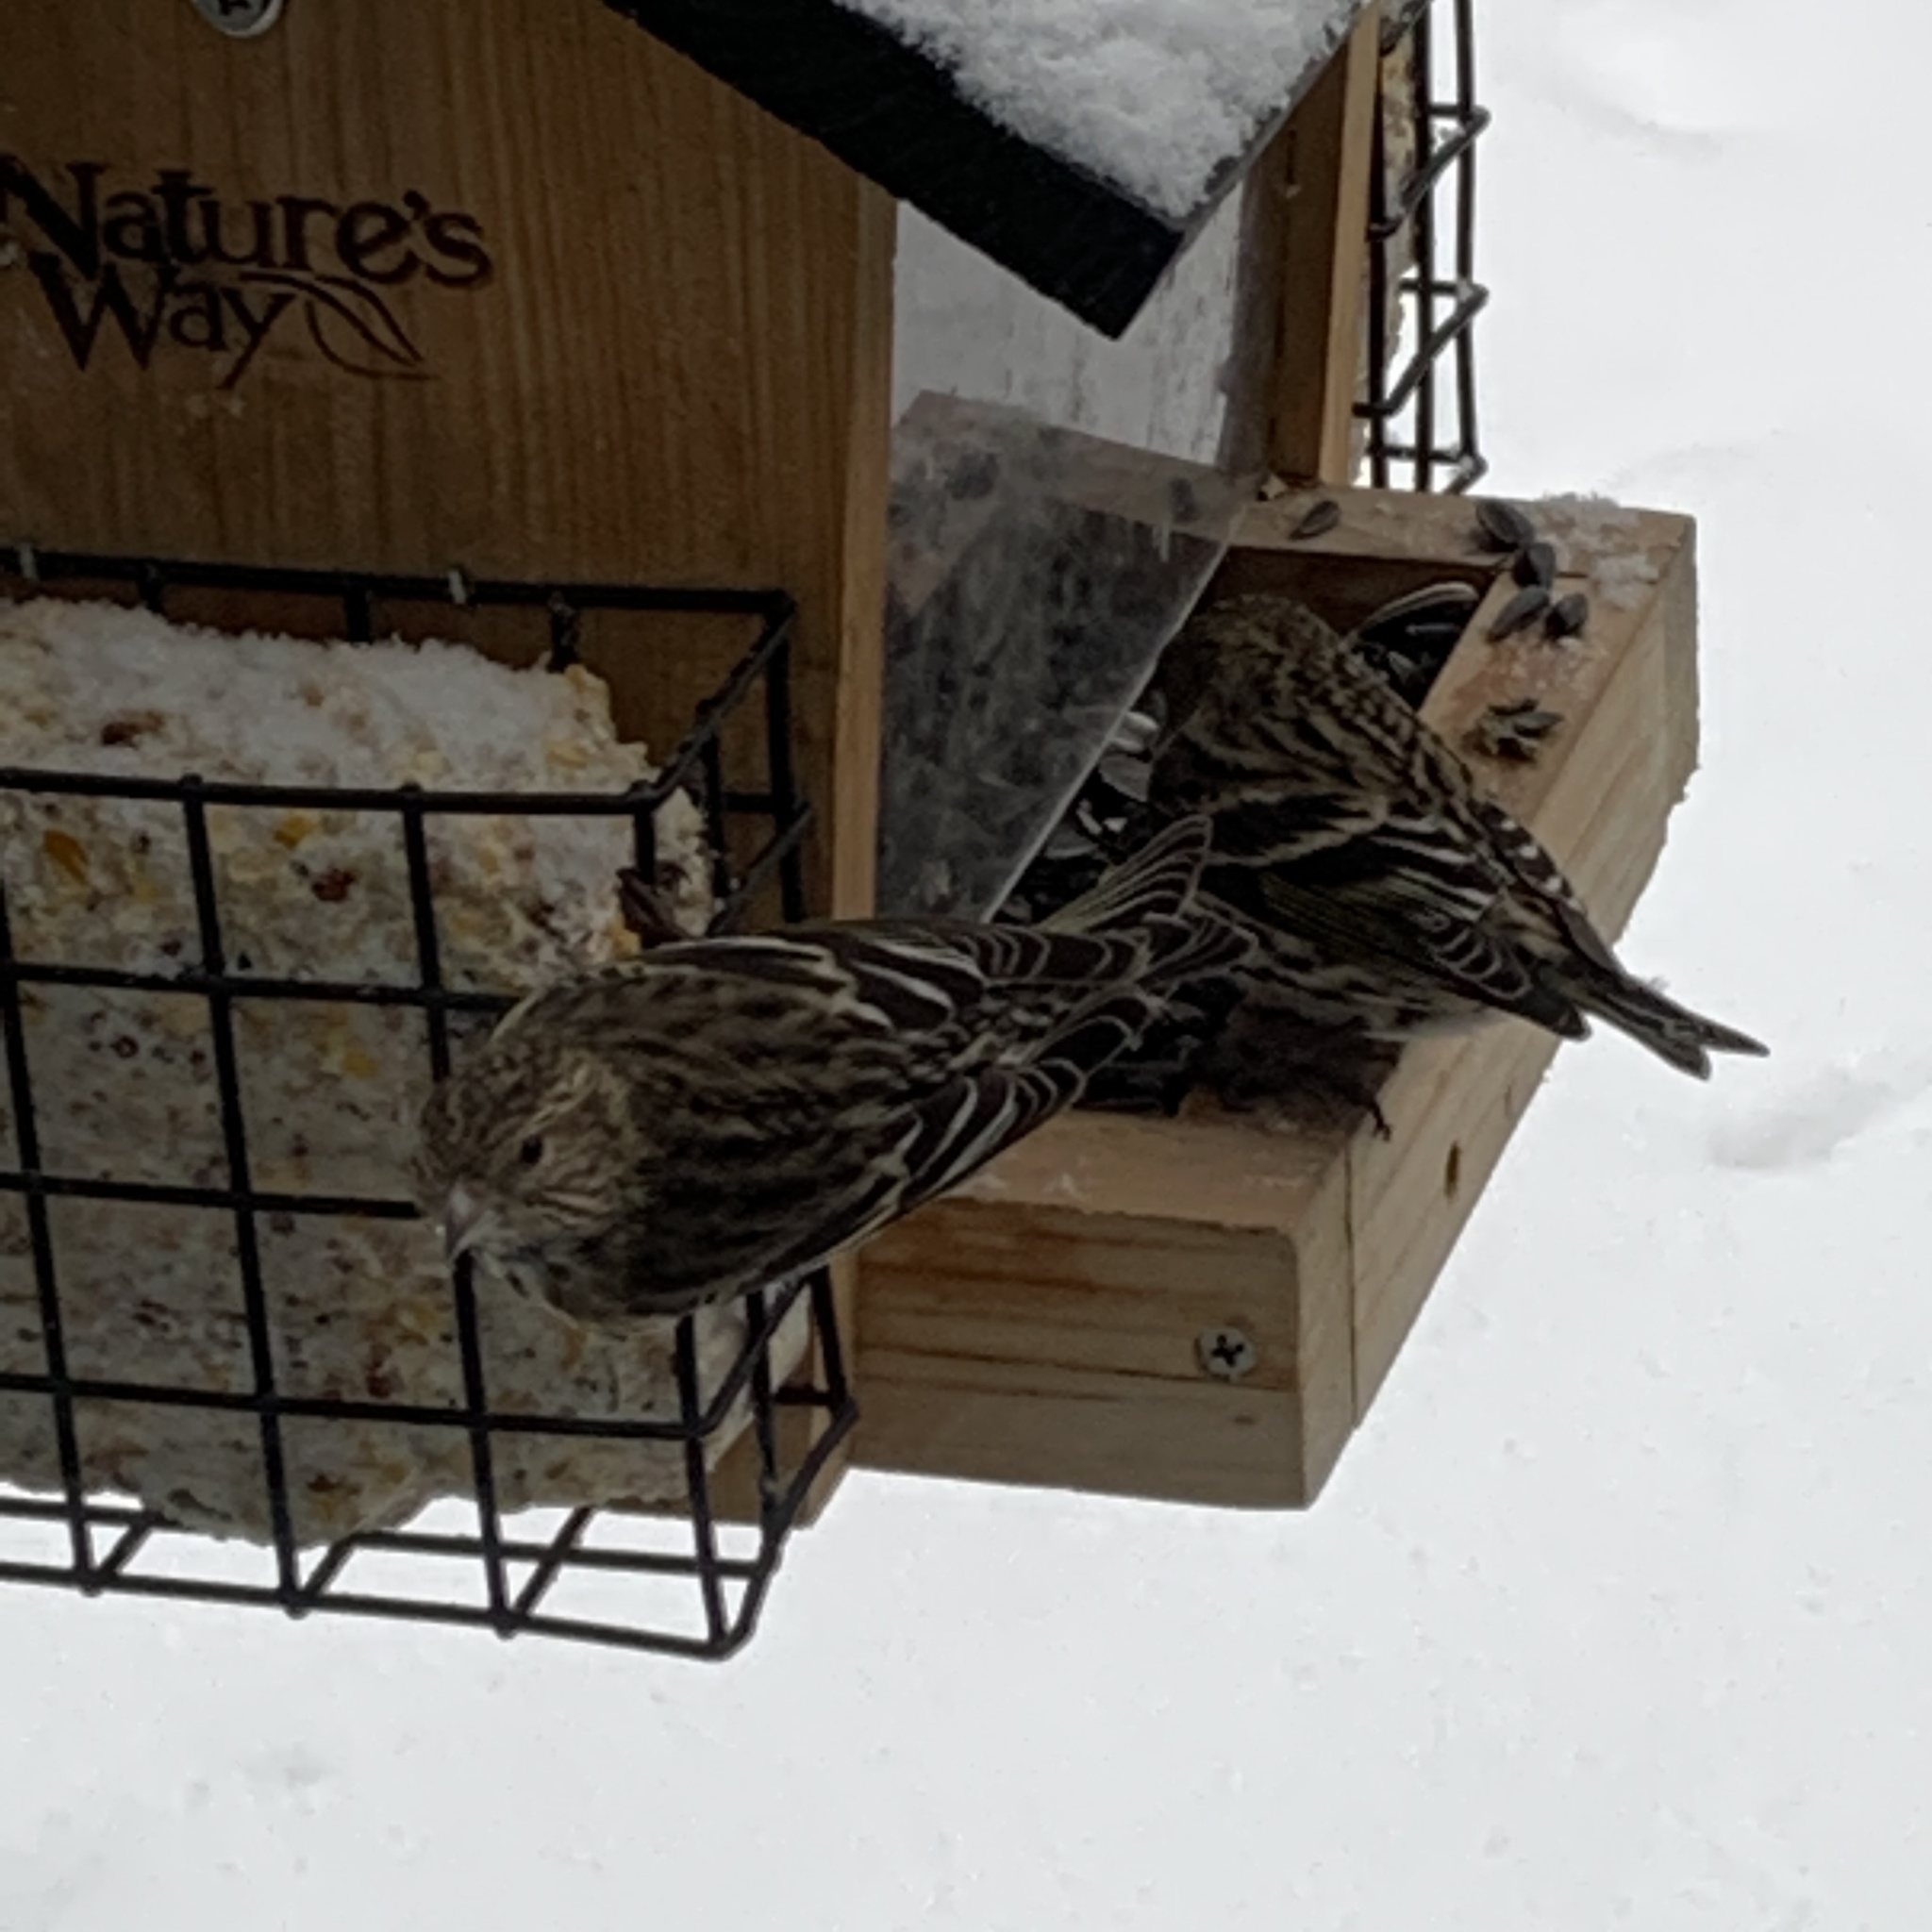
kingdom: Animalia
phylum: Chordata
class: Aves
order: Passeriformes
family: Fringillidae
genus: Spinus
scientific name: Spinus pinus
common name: Pine siskin
